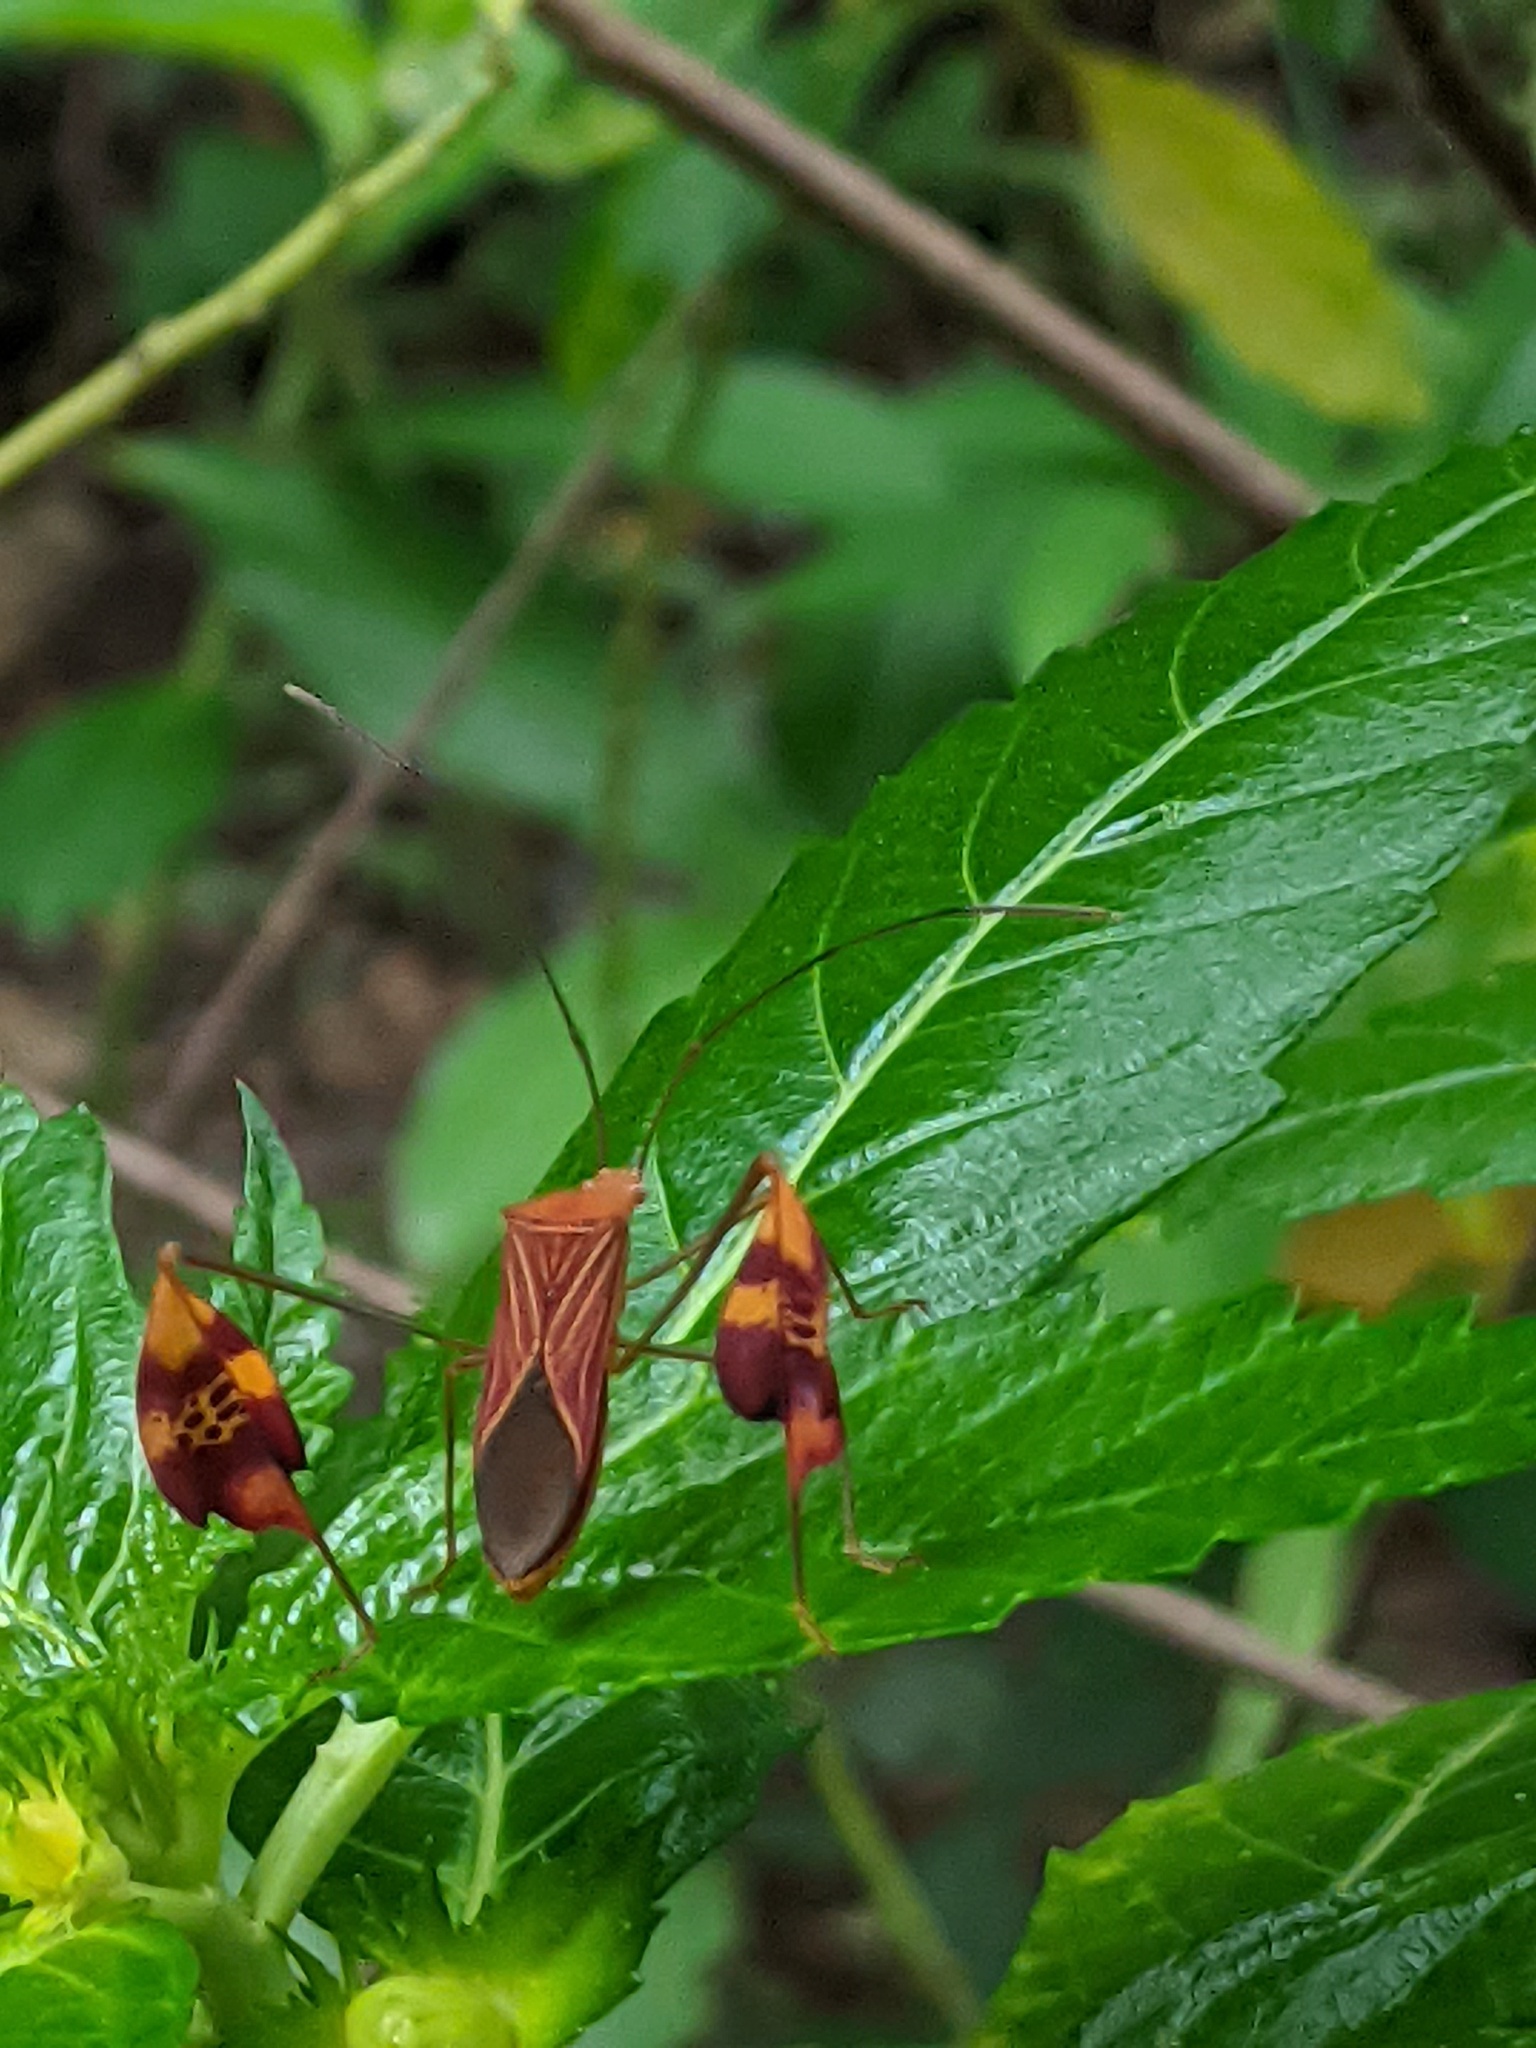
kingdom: Animalia
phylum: Arthropoda
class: Insecta
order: Hemiptera
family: Coreidae
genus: Anisoscelis
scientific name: Anisoscelis podalicus
